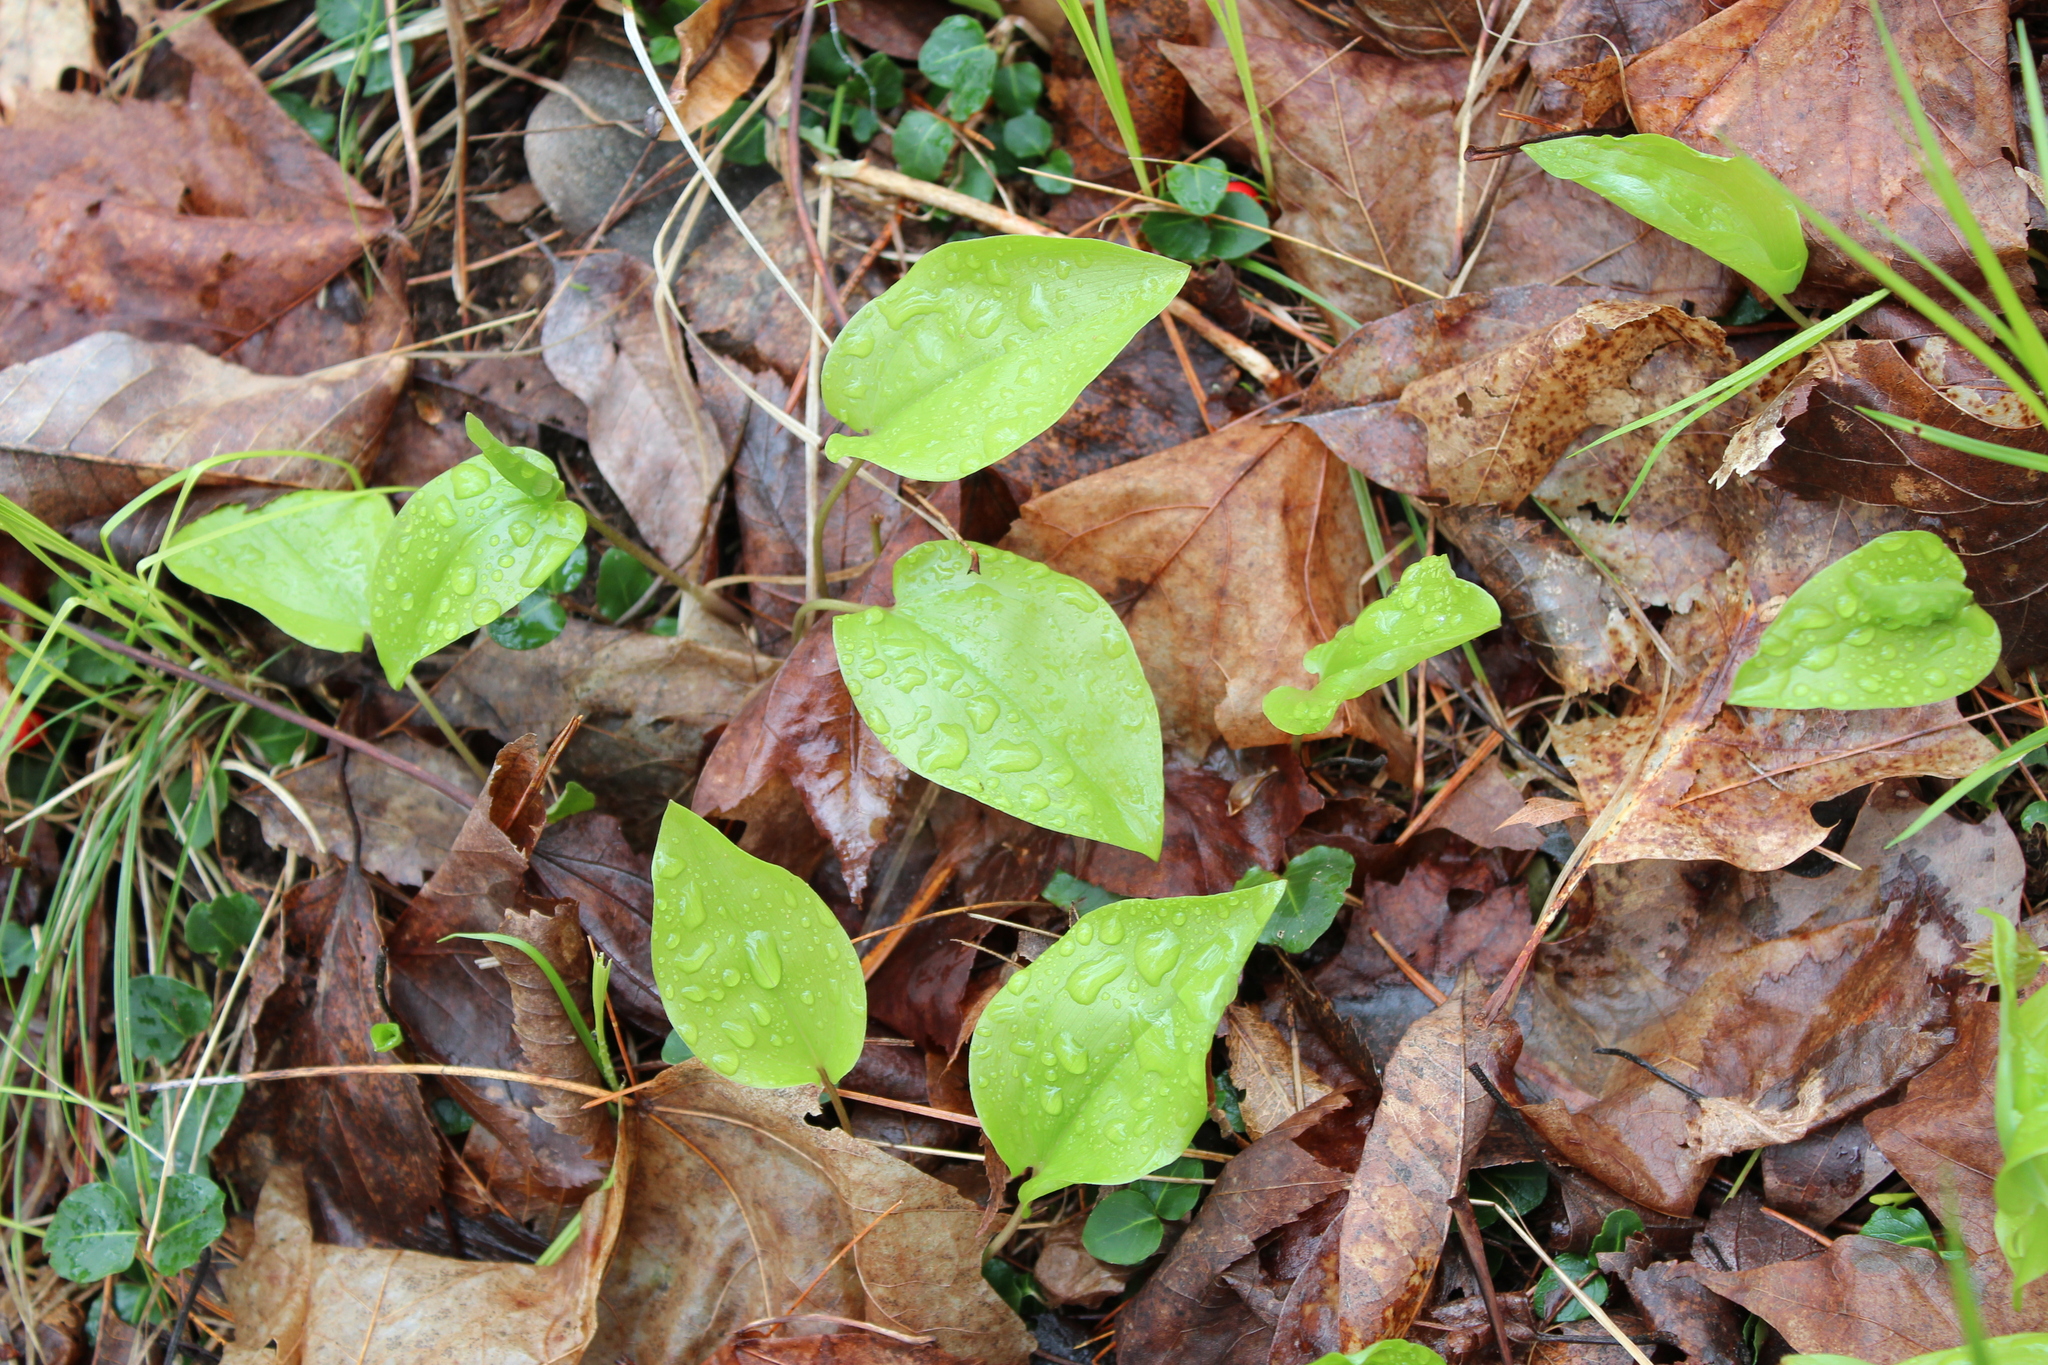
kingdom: Plantae
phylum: Tracheophyta
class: Liliopsida
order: Asparagales
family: Asparagaceae
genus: Maianthemum
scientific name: Maianthemum canadense
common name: False lily-of-the-valley
